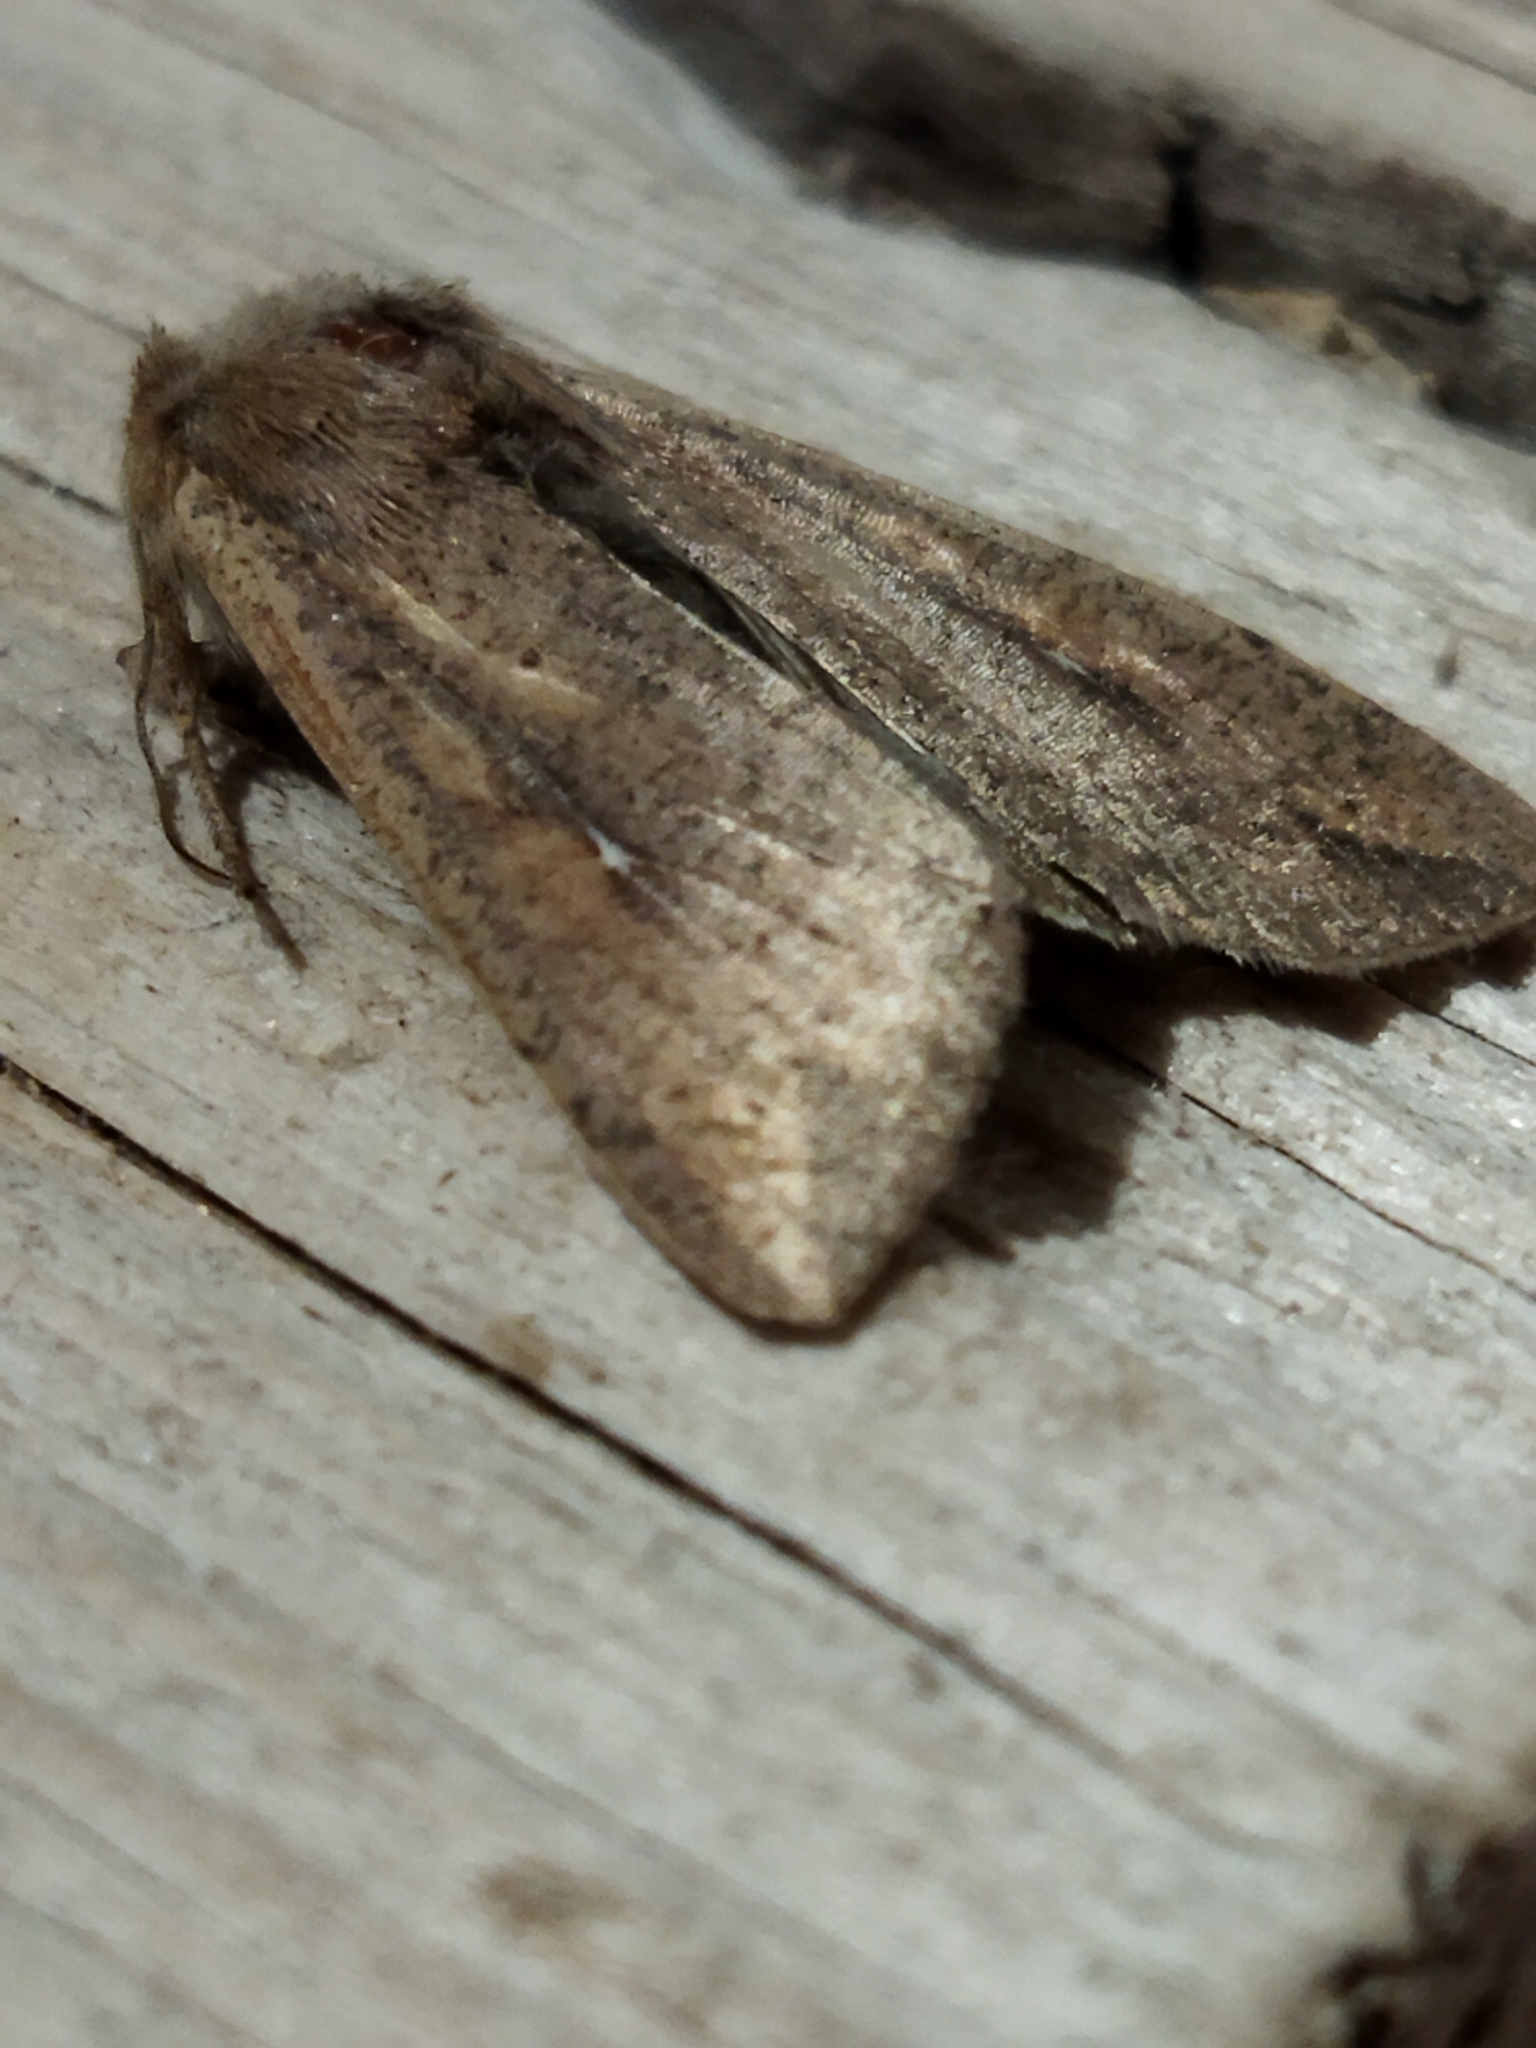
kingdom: Animalia
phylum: Arthropoda
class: Insecta
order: Lepidoptera
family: Noctuidae
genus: Mythimna
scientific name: Mythimna unipuncta
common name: White-speck
